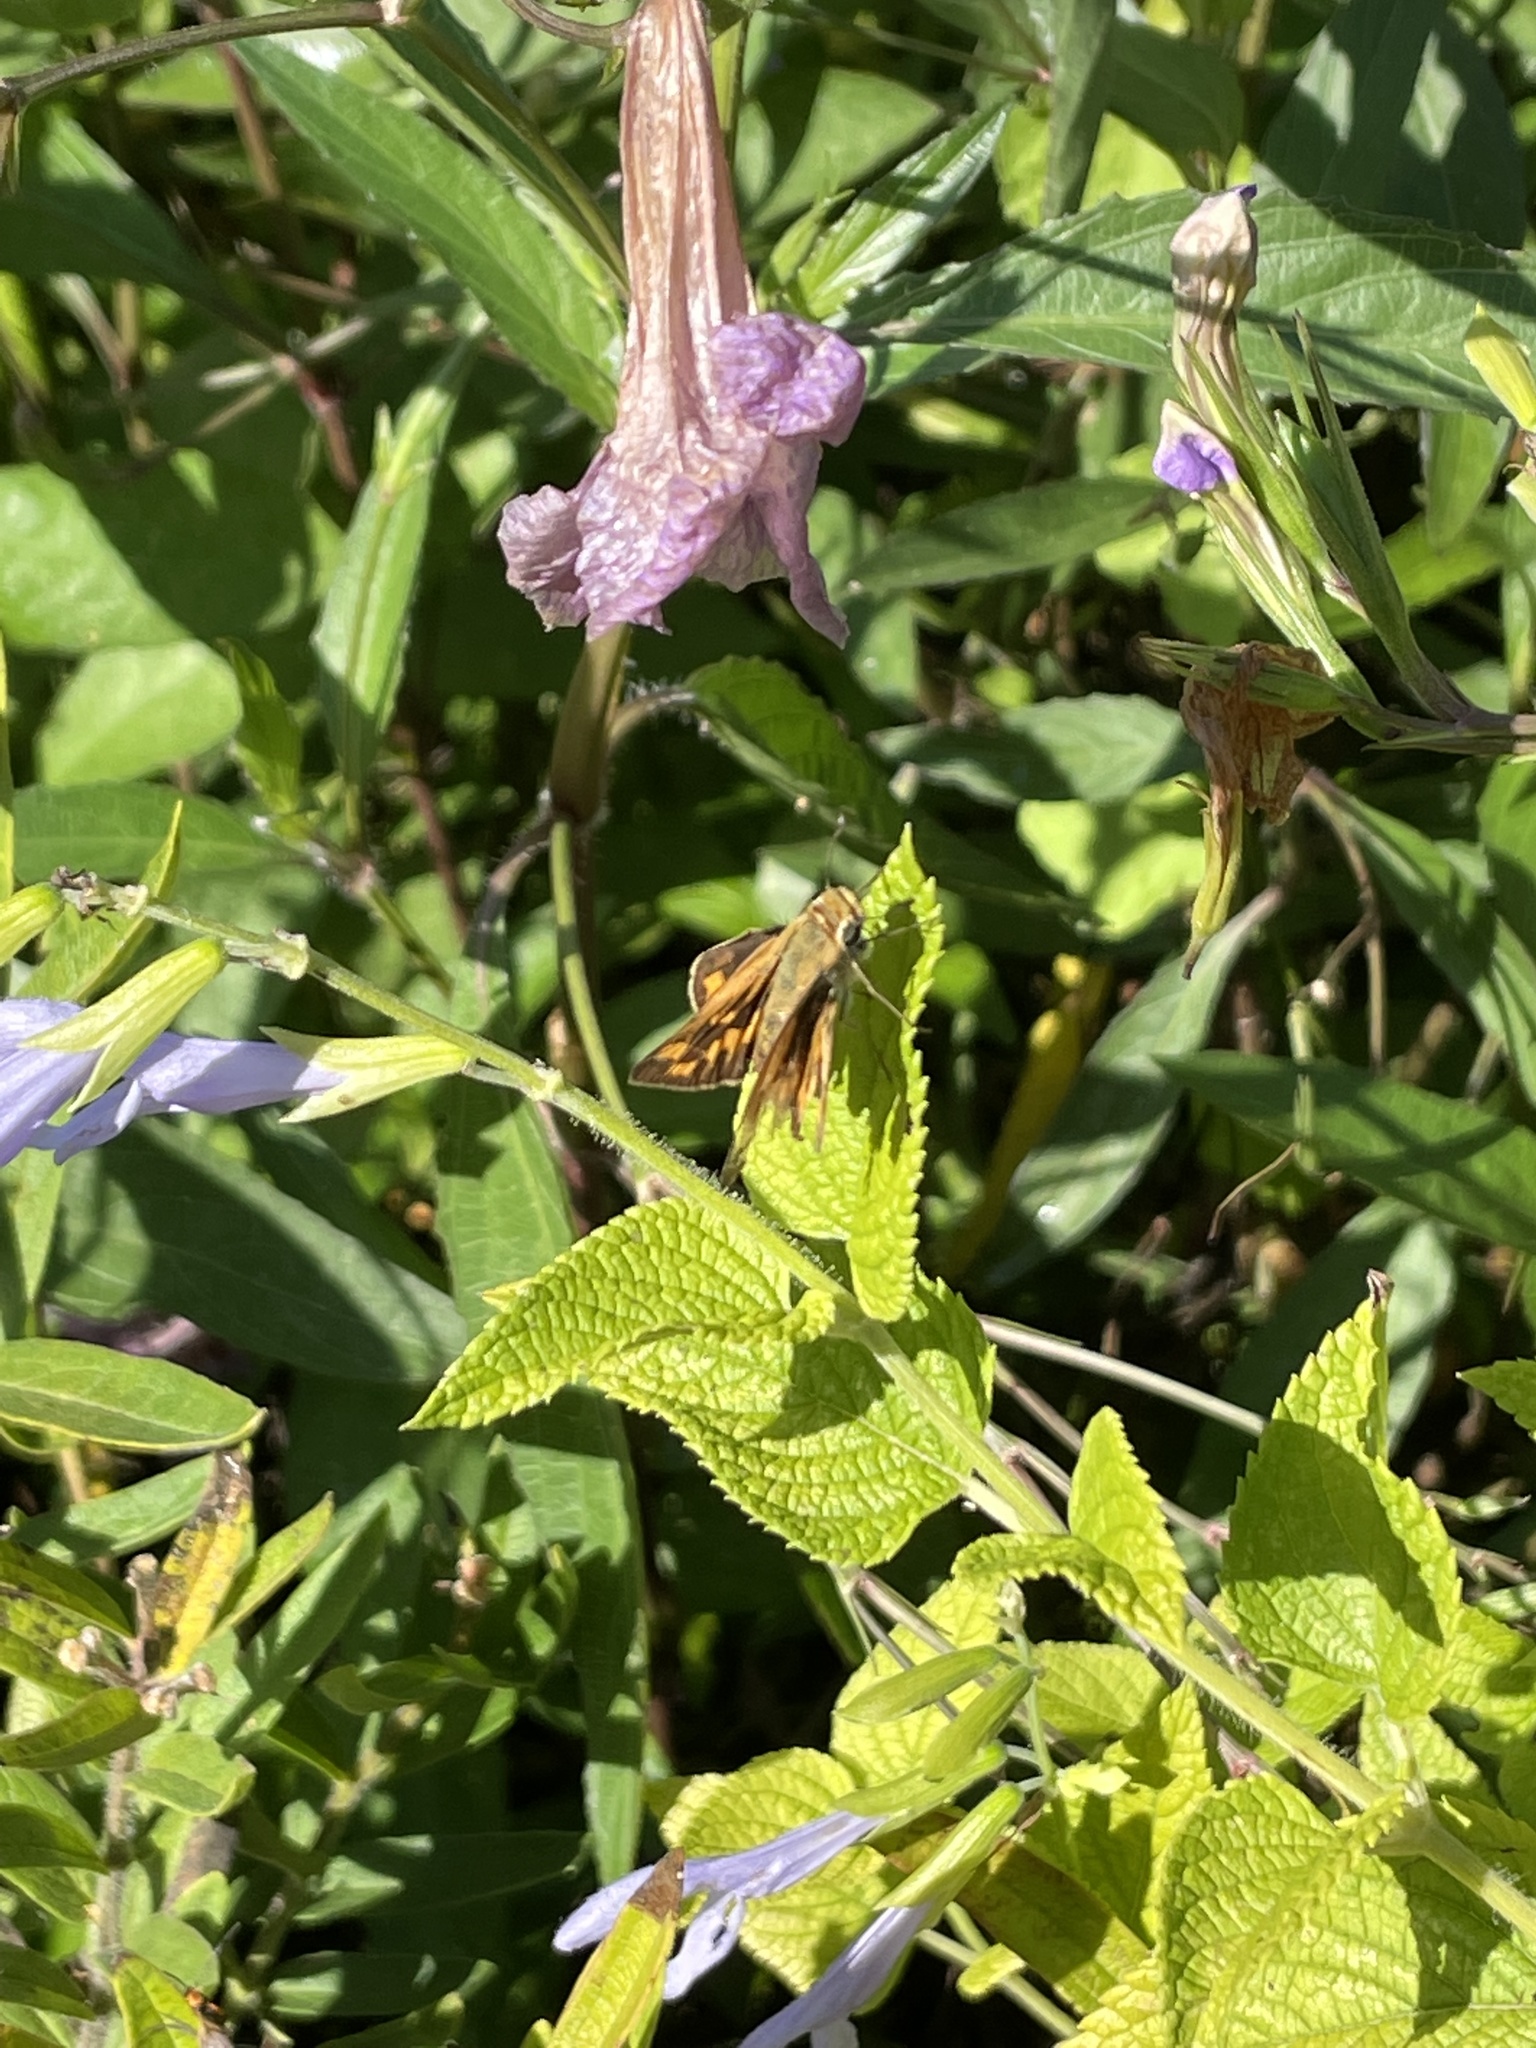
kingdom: Animalia
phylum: Arthropoda
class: Insecta
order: Lepidoptera
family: Hesperiidae
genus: Hylephila
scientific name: Hylephila phyleus
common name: Fiery skipper
